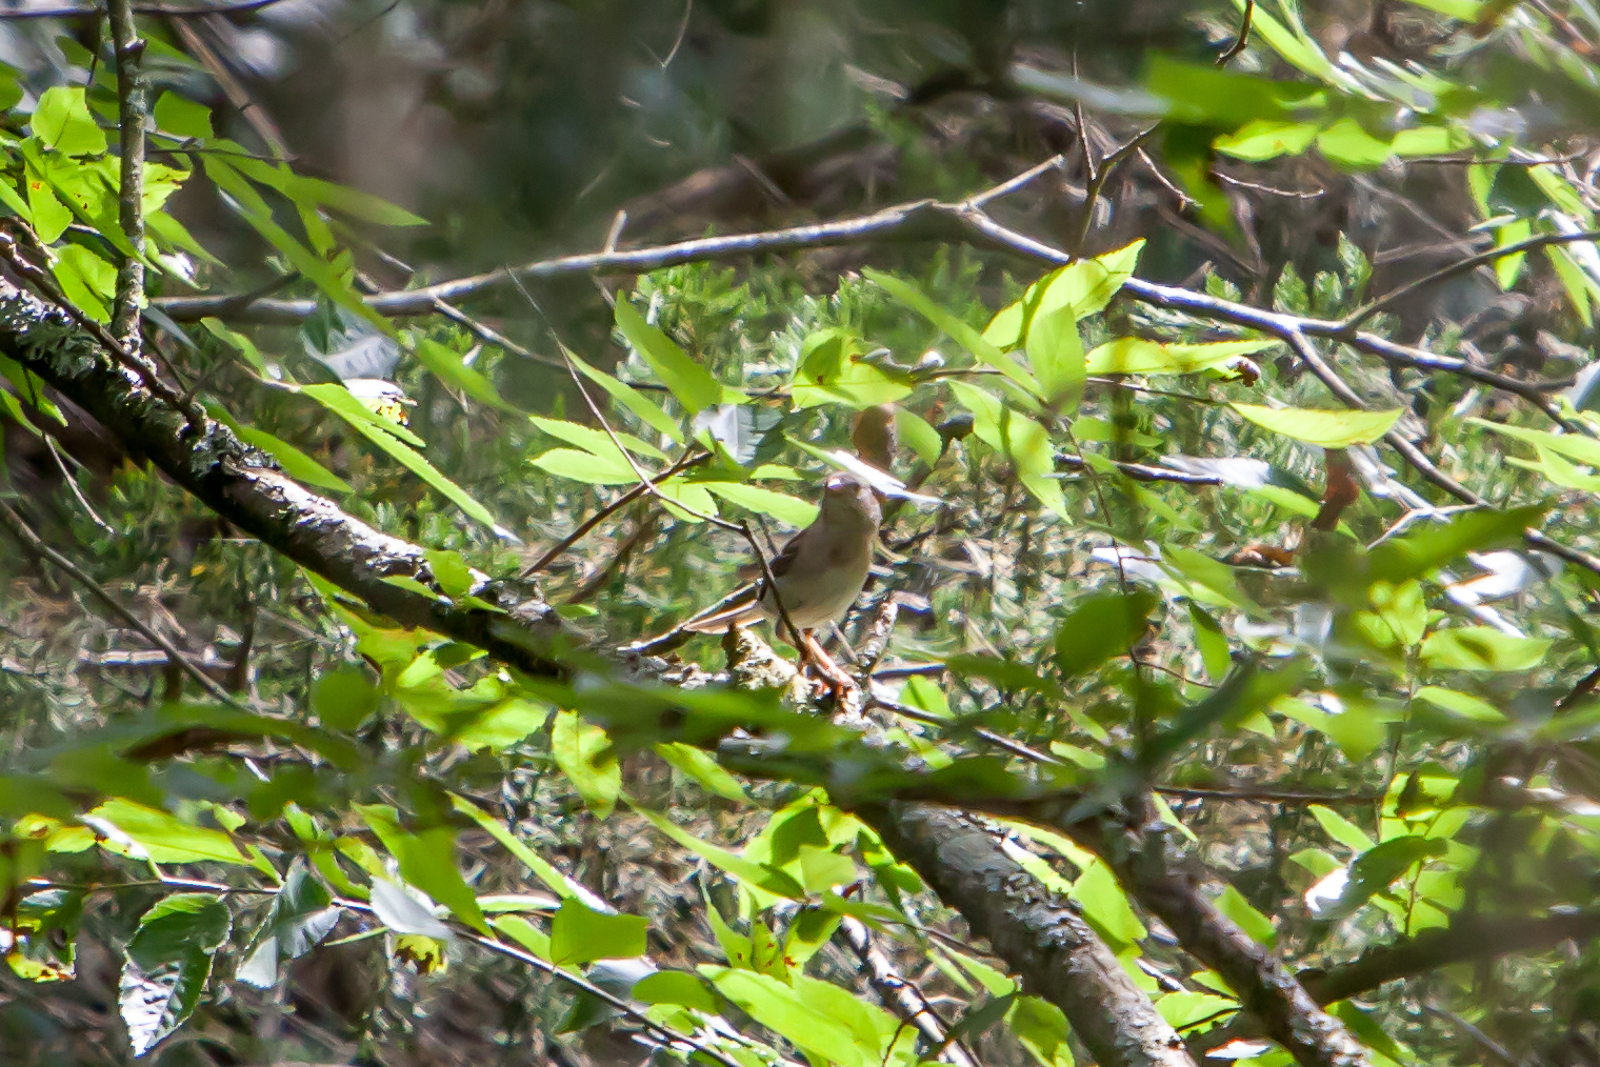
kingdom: Animalia
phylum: Chordata
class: Aves
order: Passeriformes
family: Passerellidae
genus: Spizella
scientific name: Spizella pusilla
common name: Field sparrow
